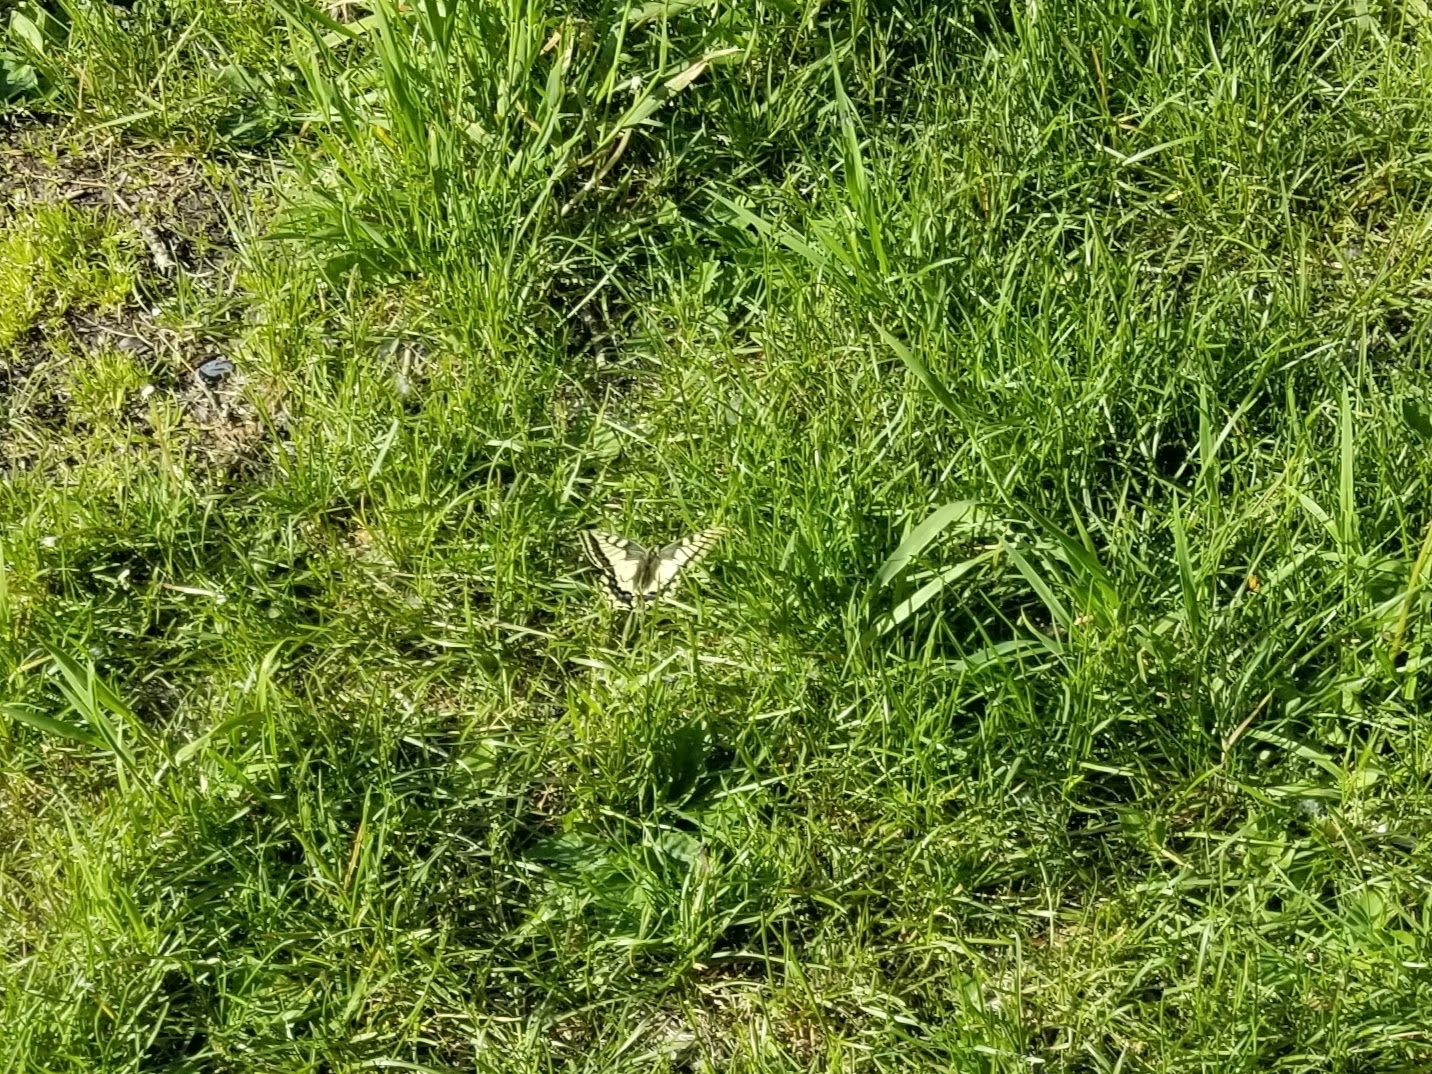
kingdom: Animalia
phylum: Arthropoda
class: Insecta
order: Lepidoptera
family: Papilionidae
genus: Papilio
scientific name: Papilio machaon
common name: Swallowtail
